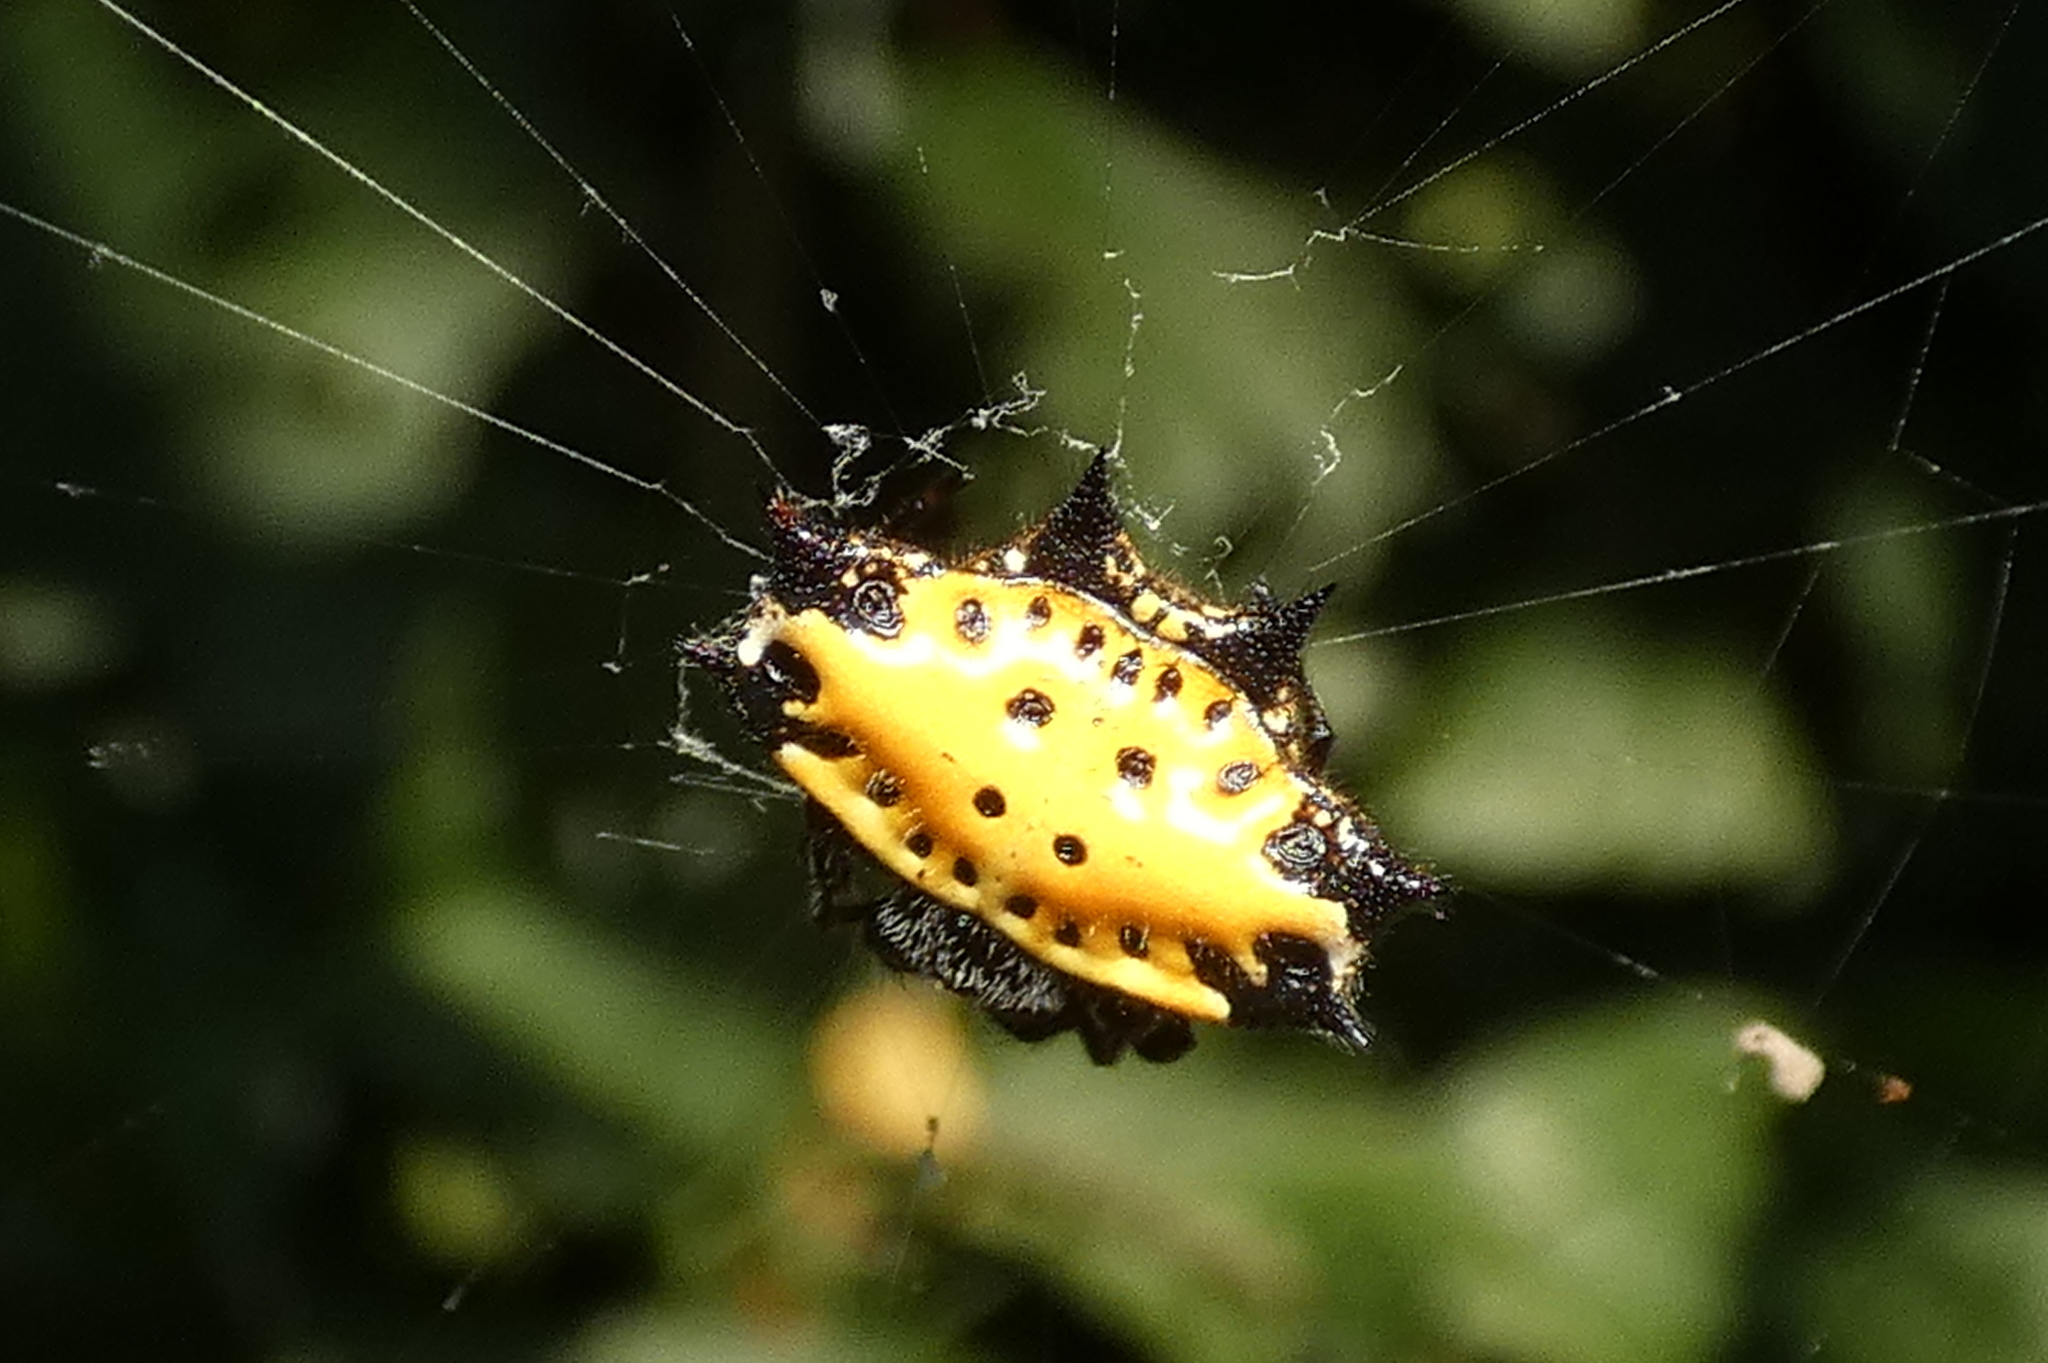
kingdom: Animalia
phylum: Arthropoda
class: Arachnida
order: Araneae
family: Araneidae
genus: Gasteracantha
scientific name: Gasteracantha cancriformis
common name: Orb weavers
